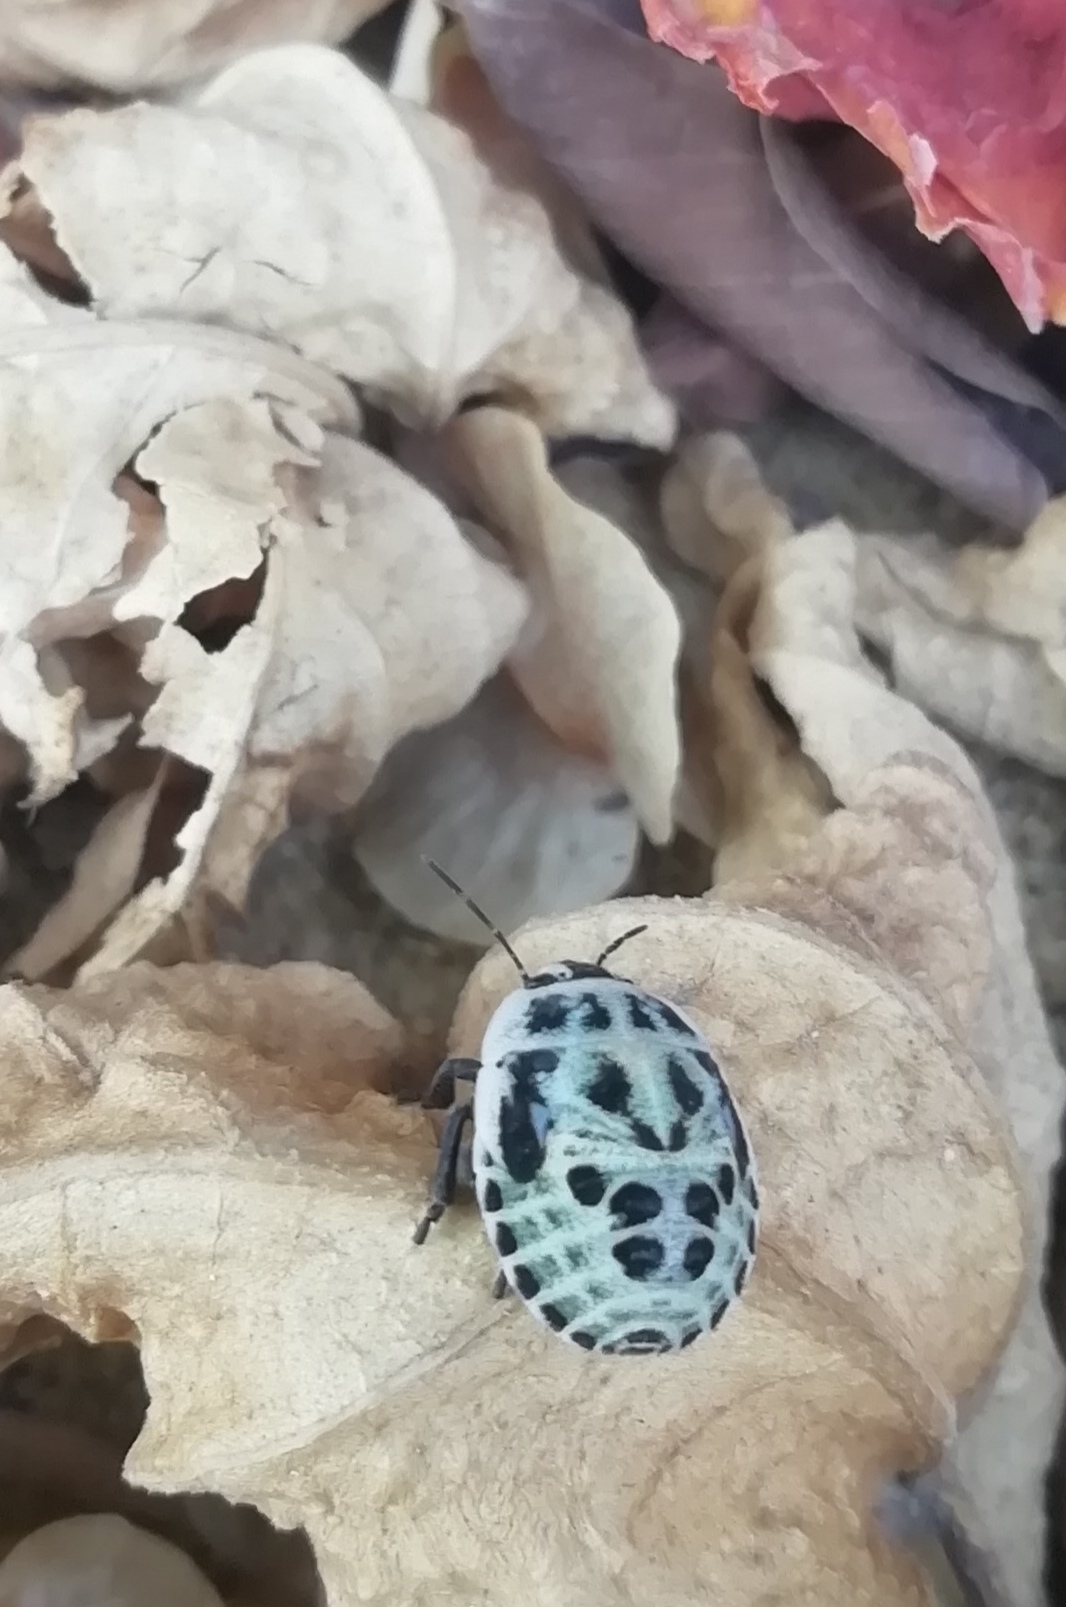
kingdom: Animalia
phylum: Arthropoda
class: Insecta
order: Hemiptera
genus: Deroplax
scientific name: Deroplax silphoides
